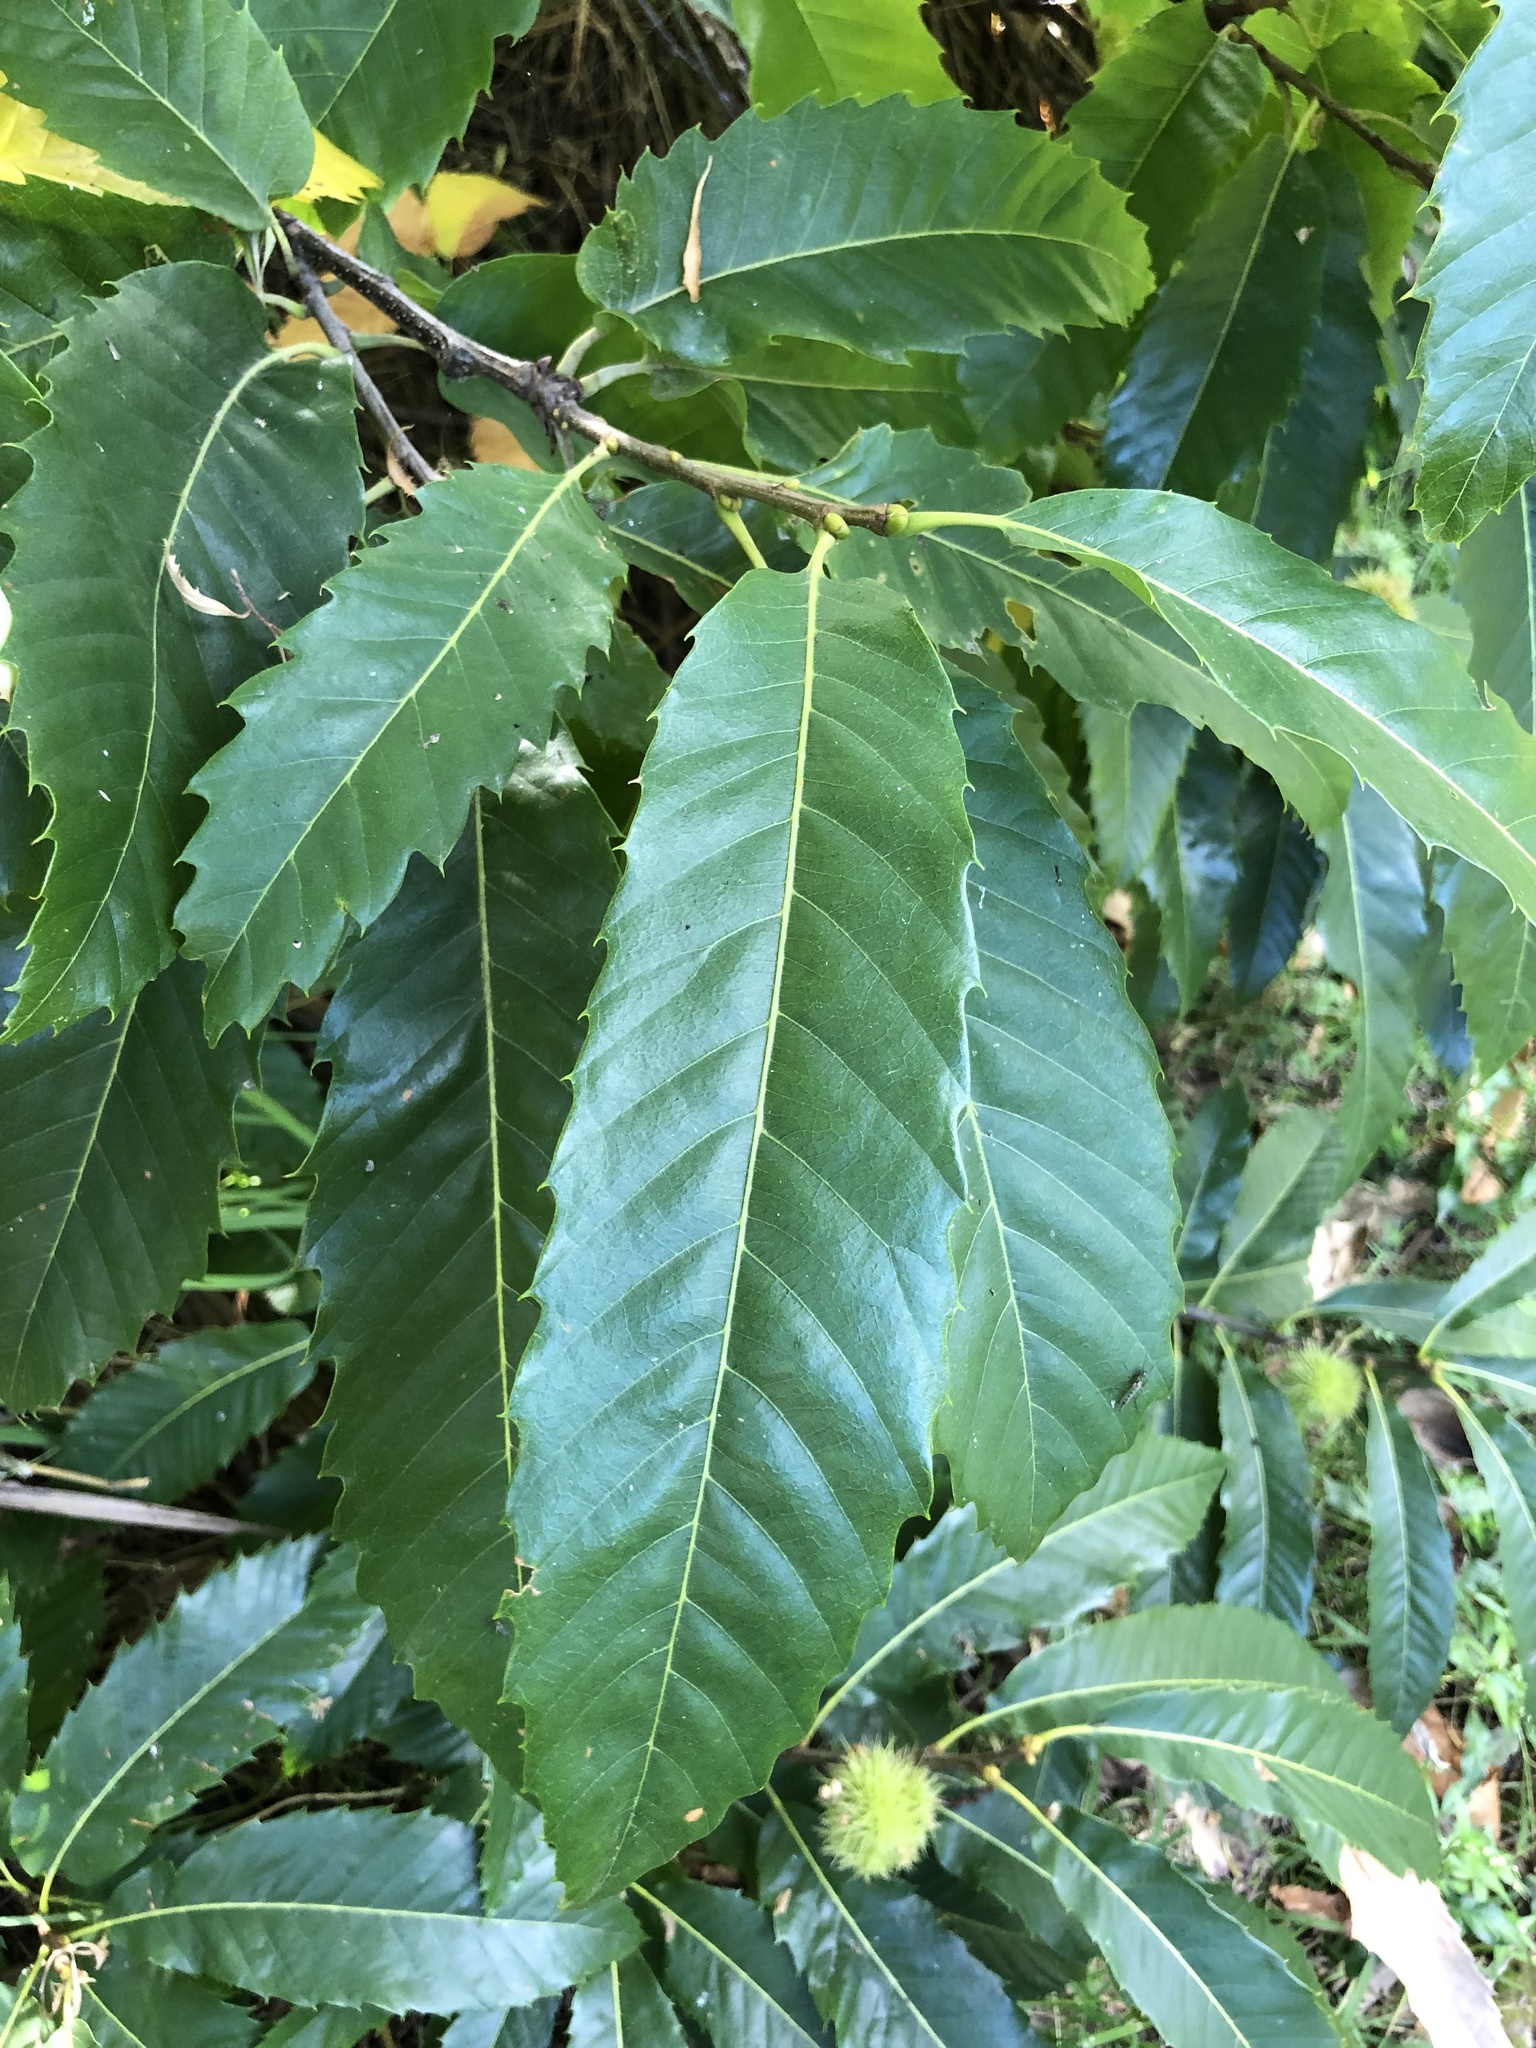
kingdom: Plantae
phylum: Tracheophyta
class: Magnoliopsida
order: Fagales
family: Fagaceae
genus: Castanea
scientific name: Castanea sativa
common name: Sweet chestnut
